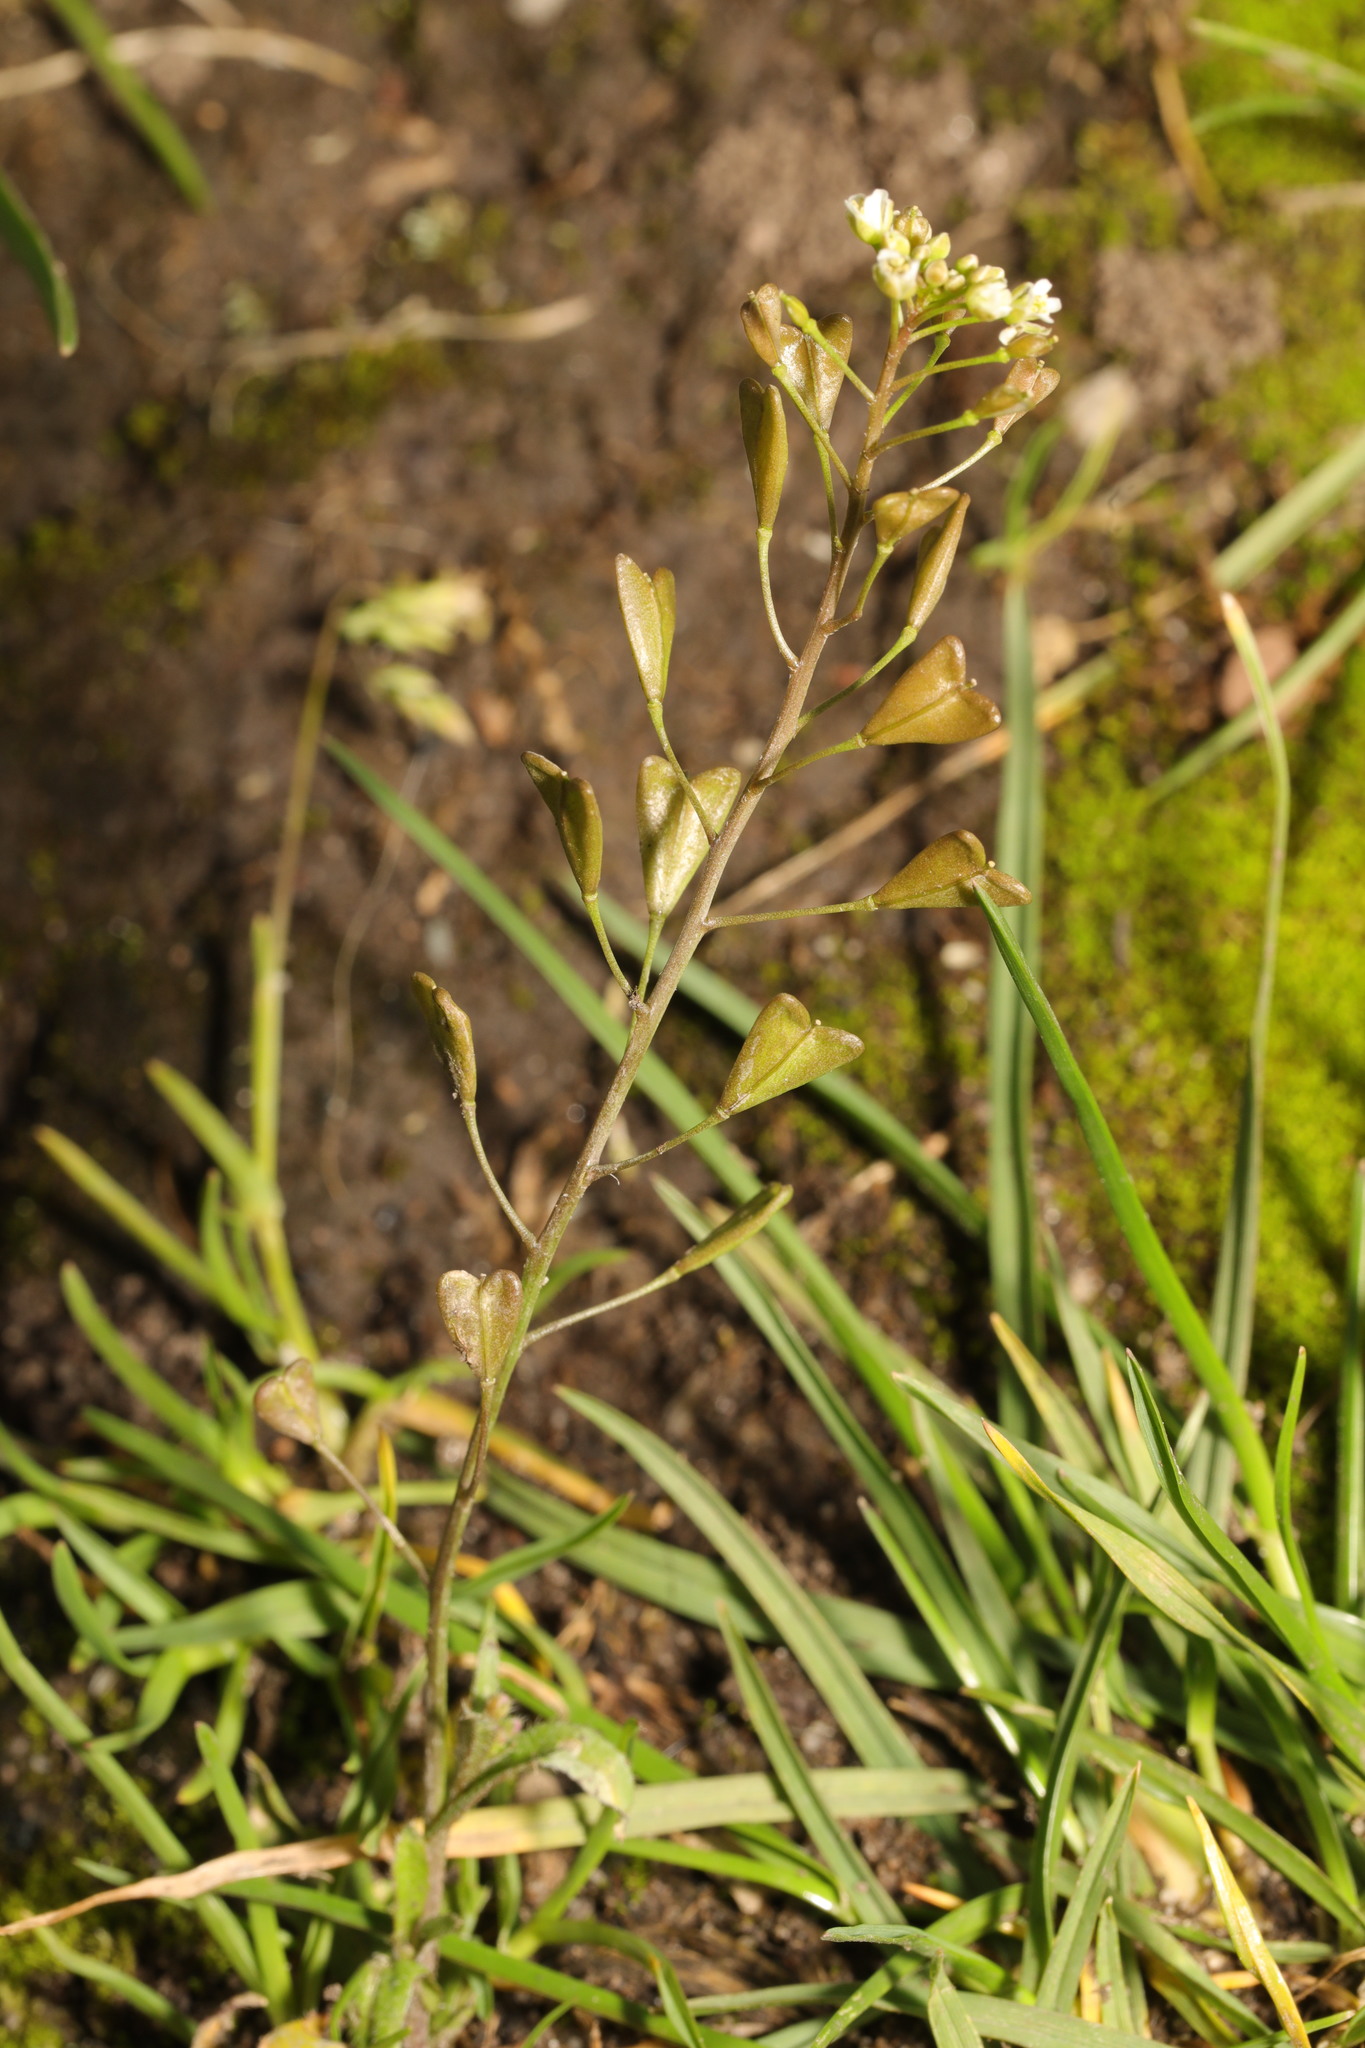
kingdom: Plantae
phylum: Tracheophyta
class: Magnoliopsida
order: Brassicales
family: Brassicaceae
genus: Capsella
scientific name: Capsella bursa-pastoris
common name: Shepherd's purse
